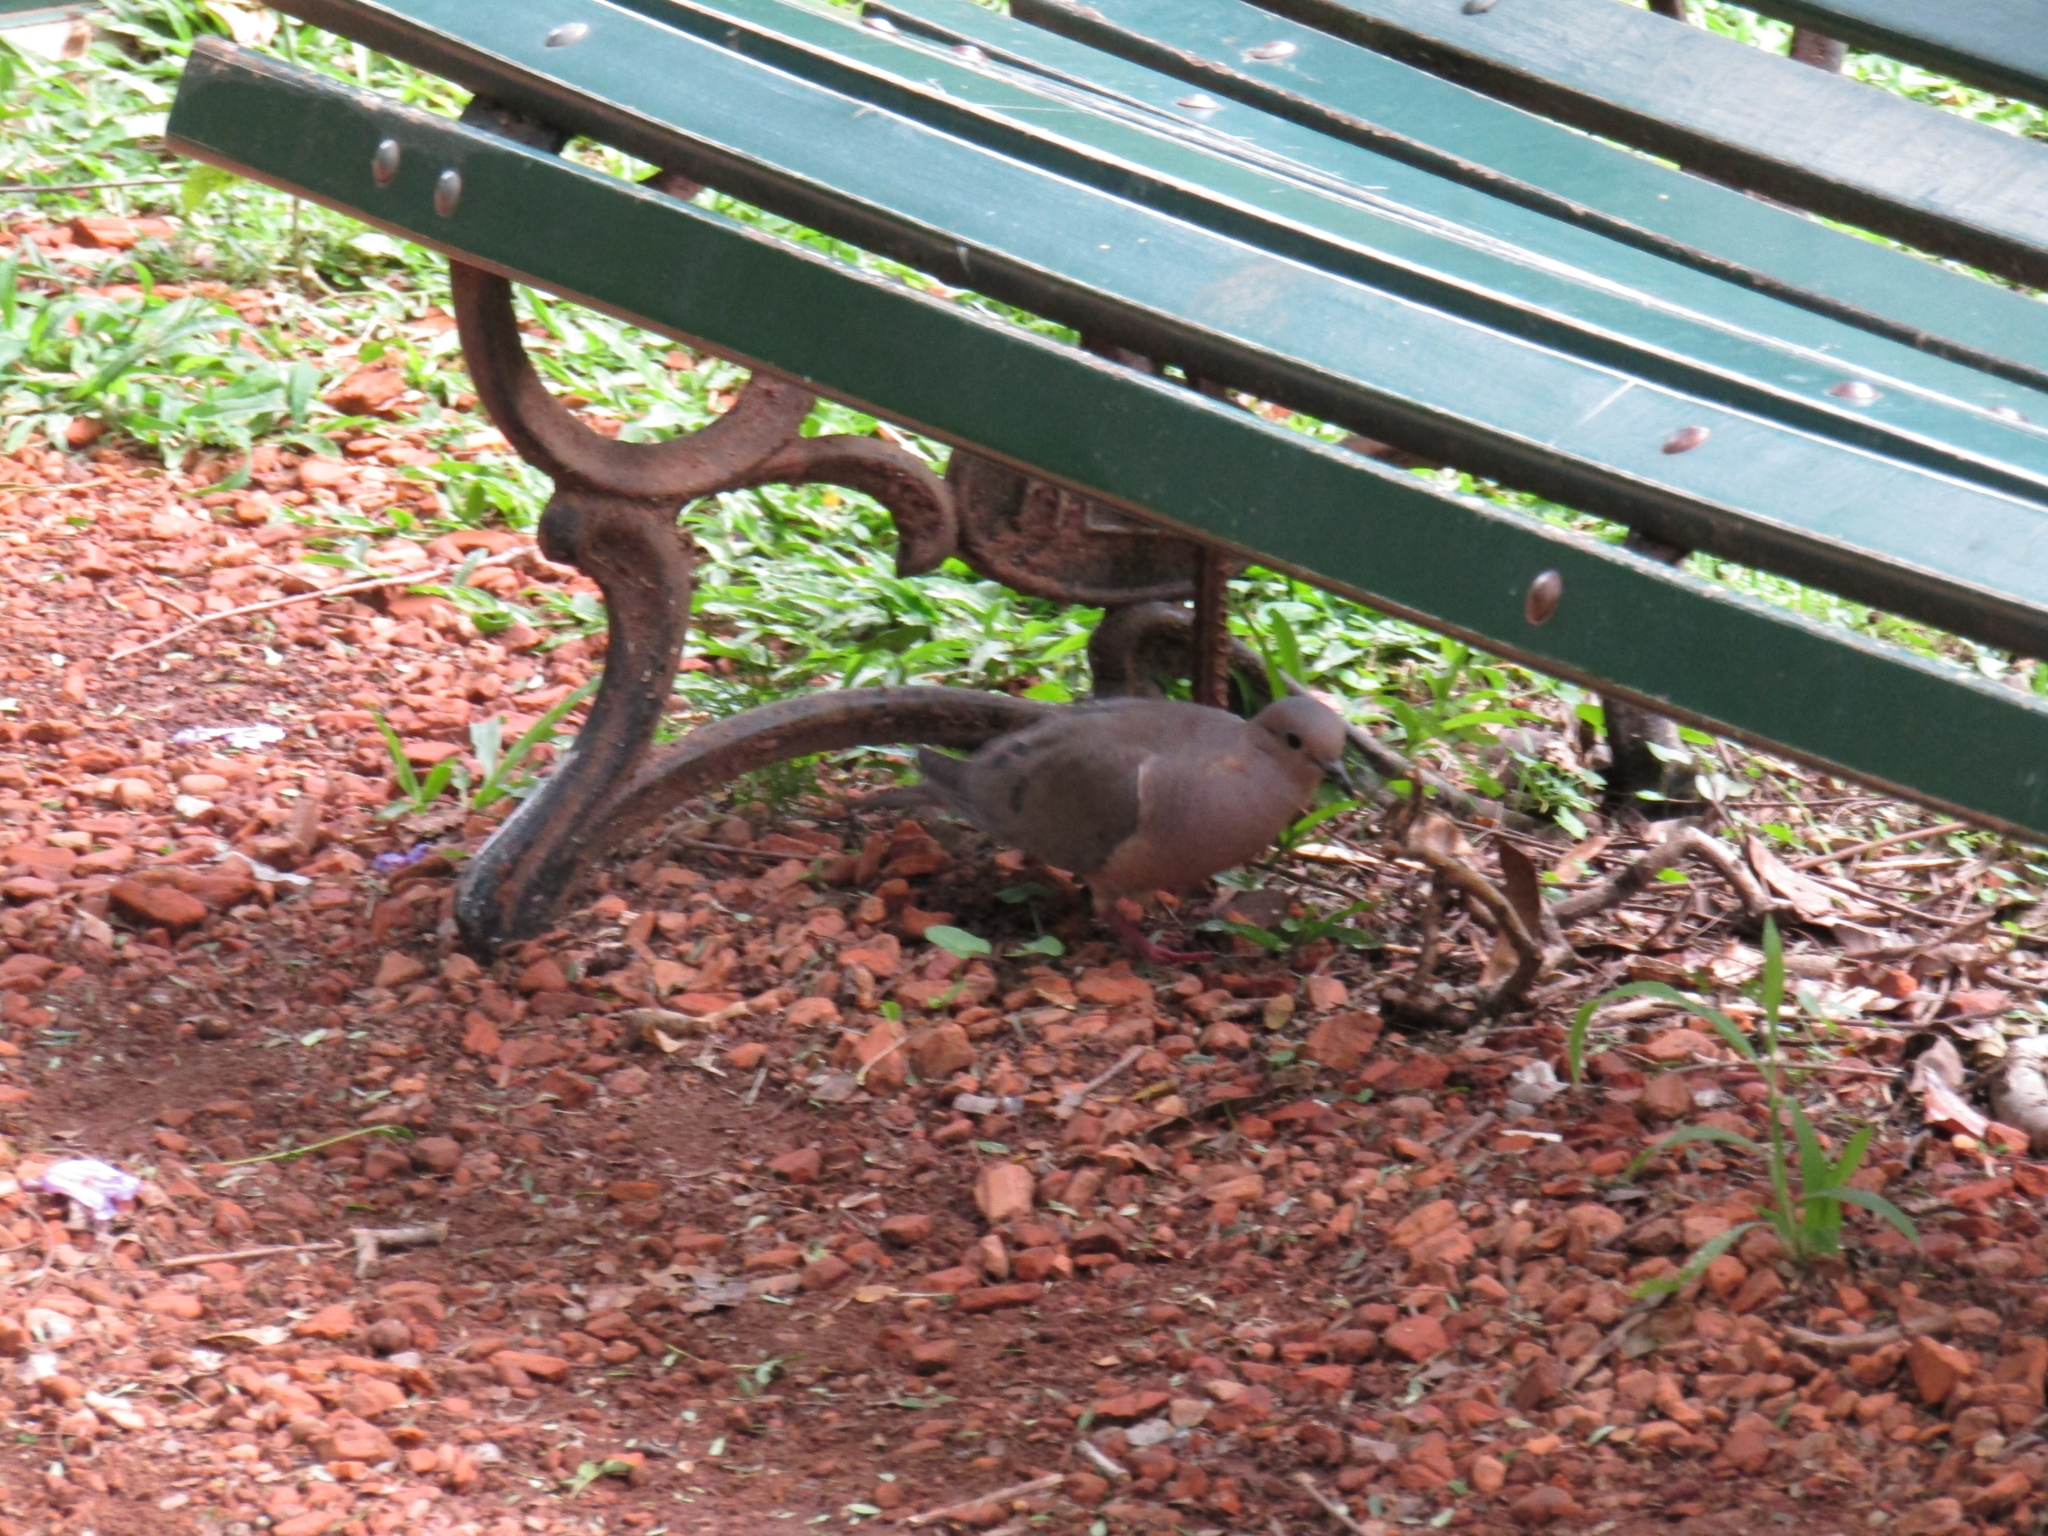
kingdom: Animalia
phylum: Chordata
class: Aves
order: Columbiformes
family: Columbidae
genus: Zenaida
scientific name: Zenaida auriculata
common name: Eared dove
